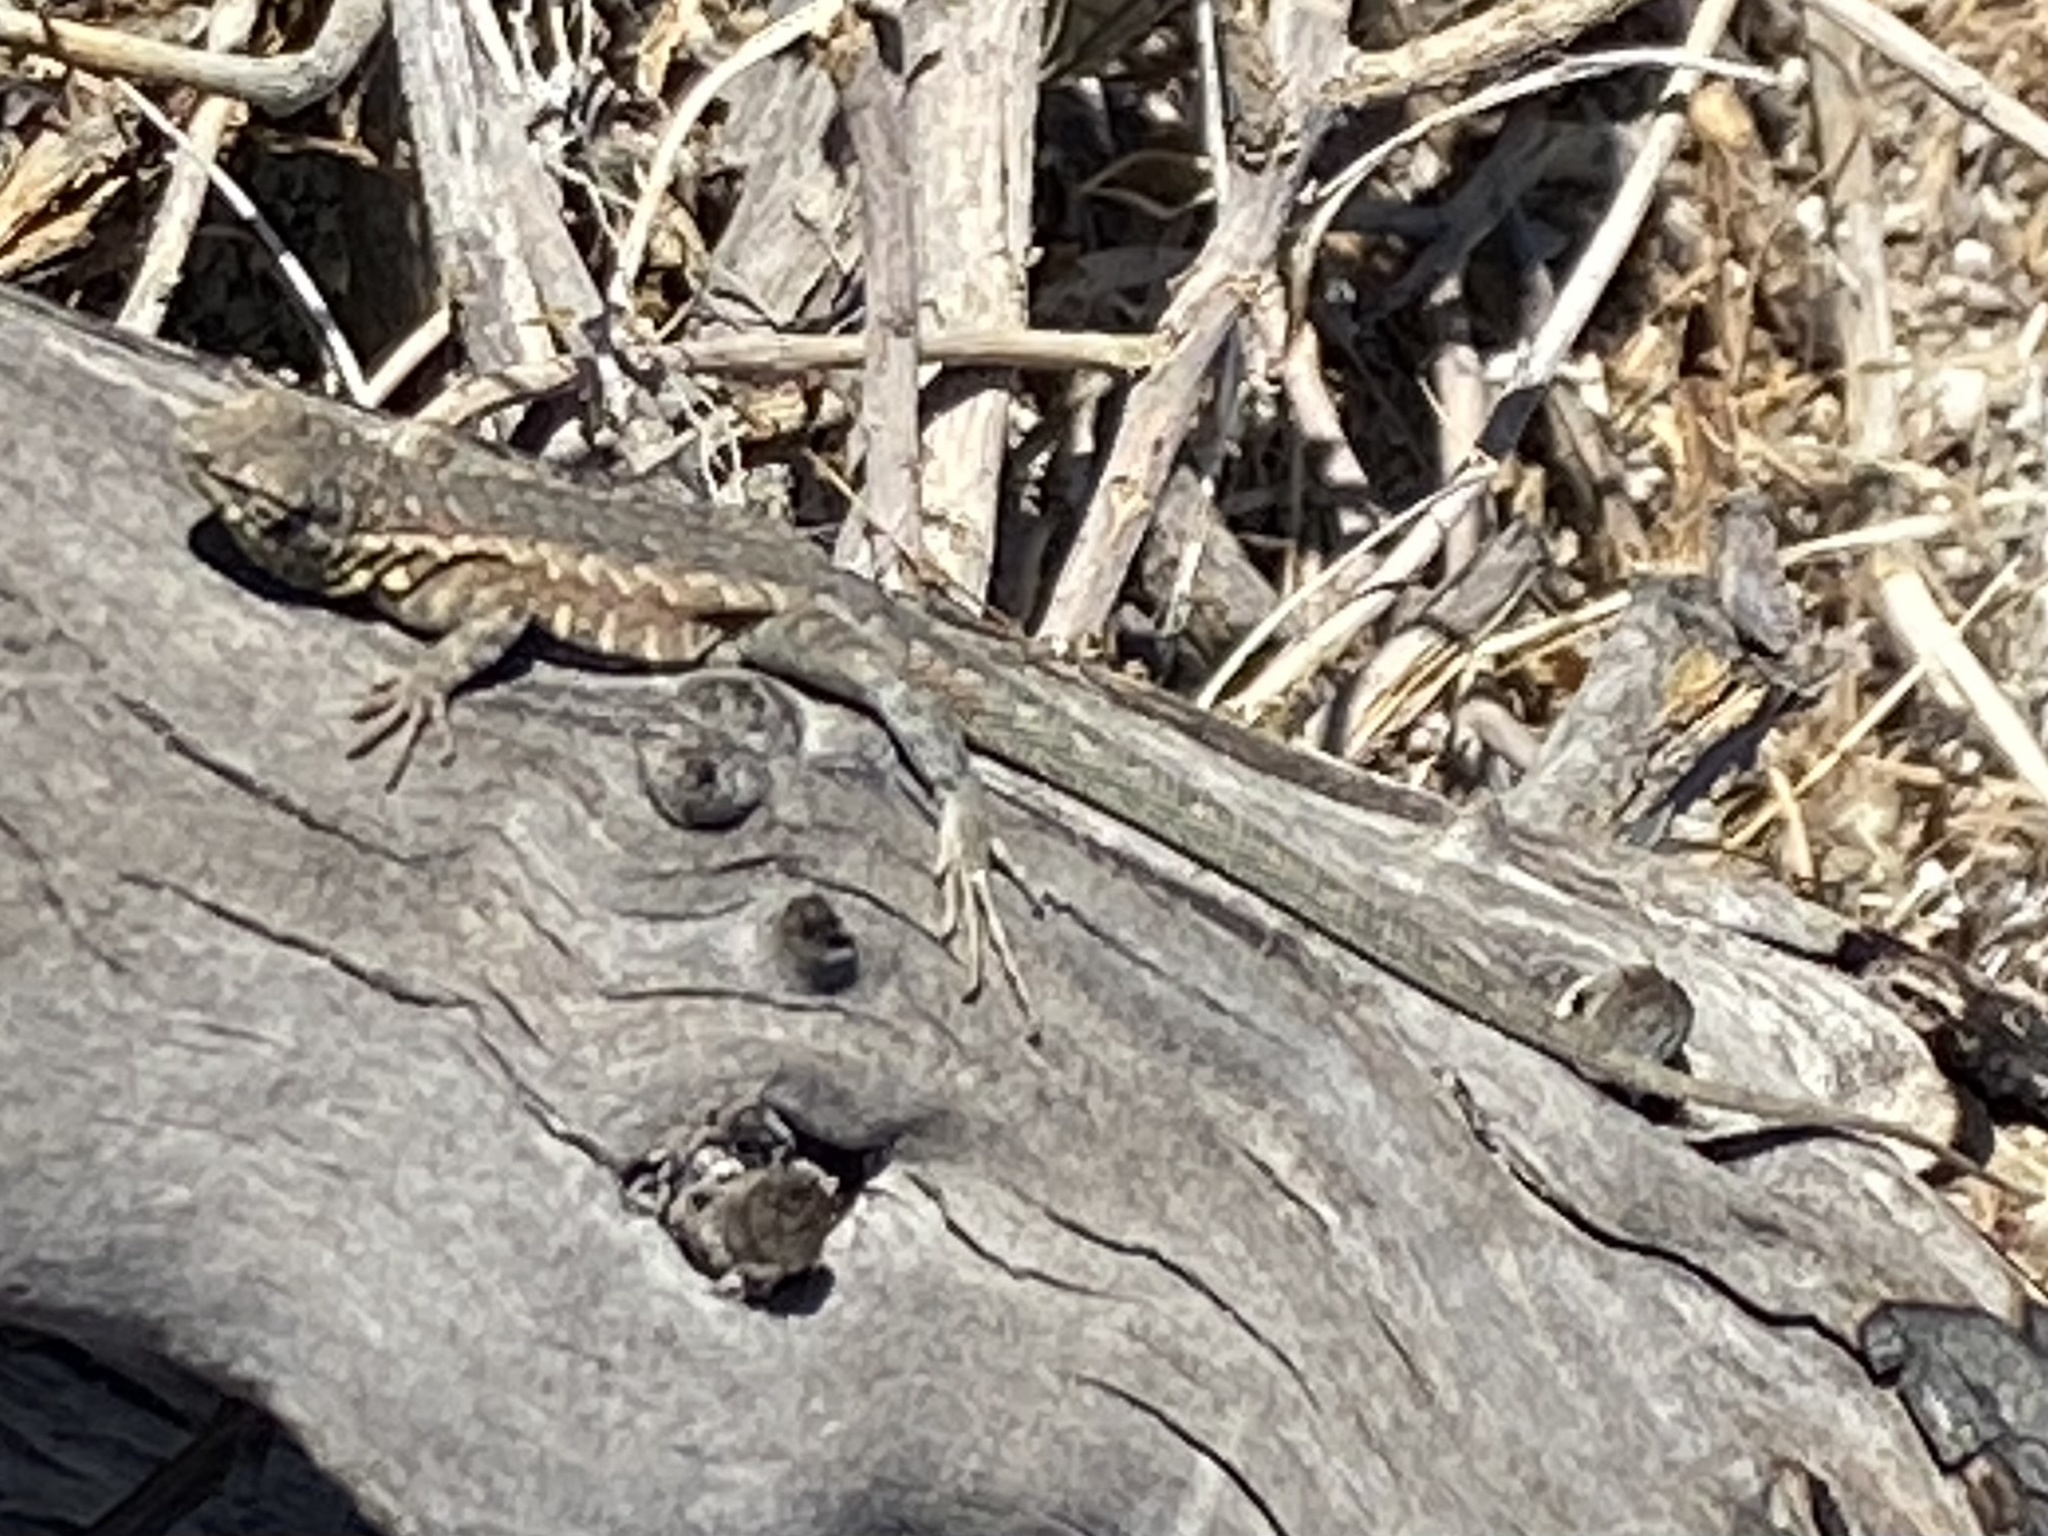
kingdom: Animalia
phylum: Chordata
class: Squamata
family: Phrynosomatidae
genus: Uta
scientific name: Uta stansburiana
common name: Side-blotched lizard
